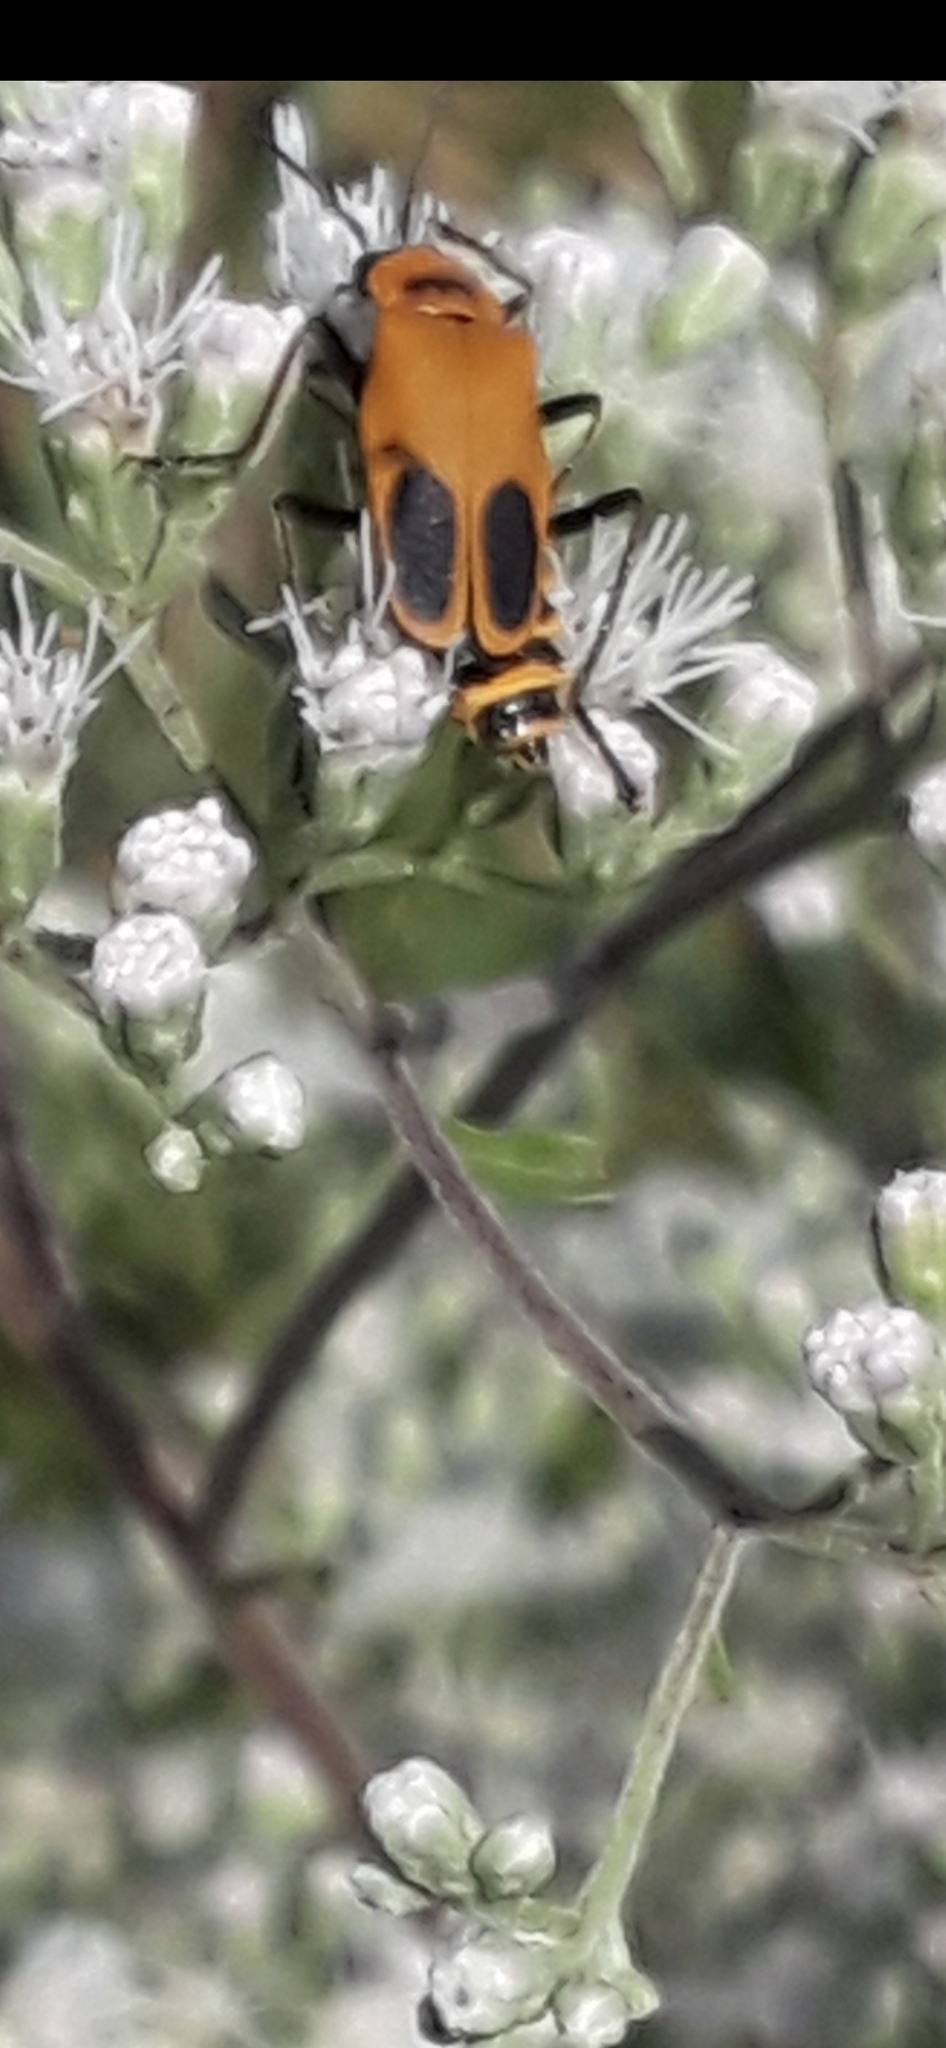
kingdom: Animalia
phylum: Arthropoda
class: Insecta
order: Coleoptera
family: Cantharidae
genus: Chauliognathus
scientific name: Chauliognathus pensylvanicus
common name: Goldenrod soldier beetle
